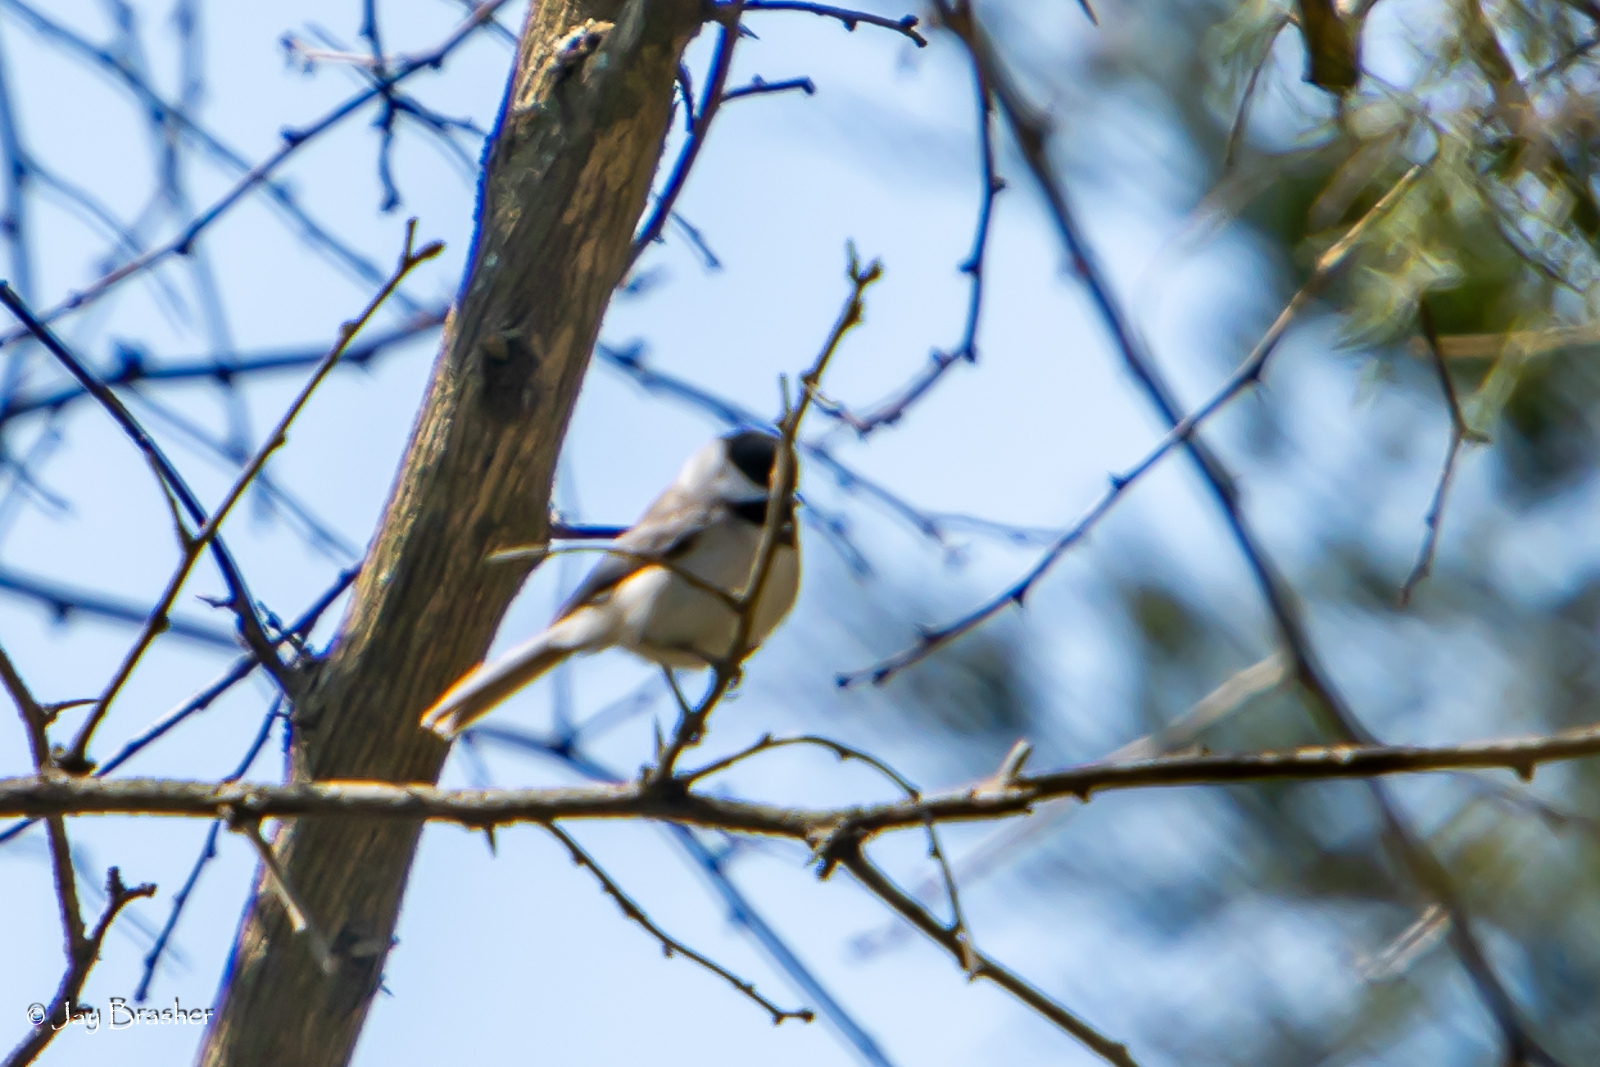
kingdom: Animalia
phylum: Chordata
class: Aves
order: Passeriformes
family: Paridae
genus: Poecile
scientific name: Poecile carolinensis
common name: Carolina chickadee
